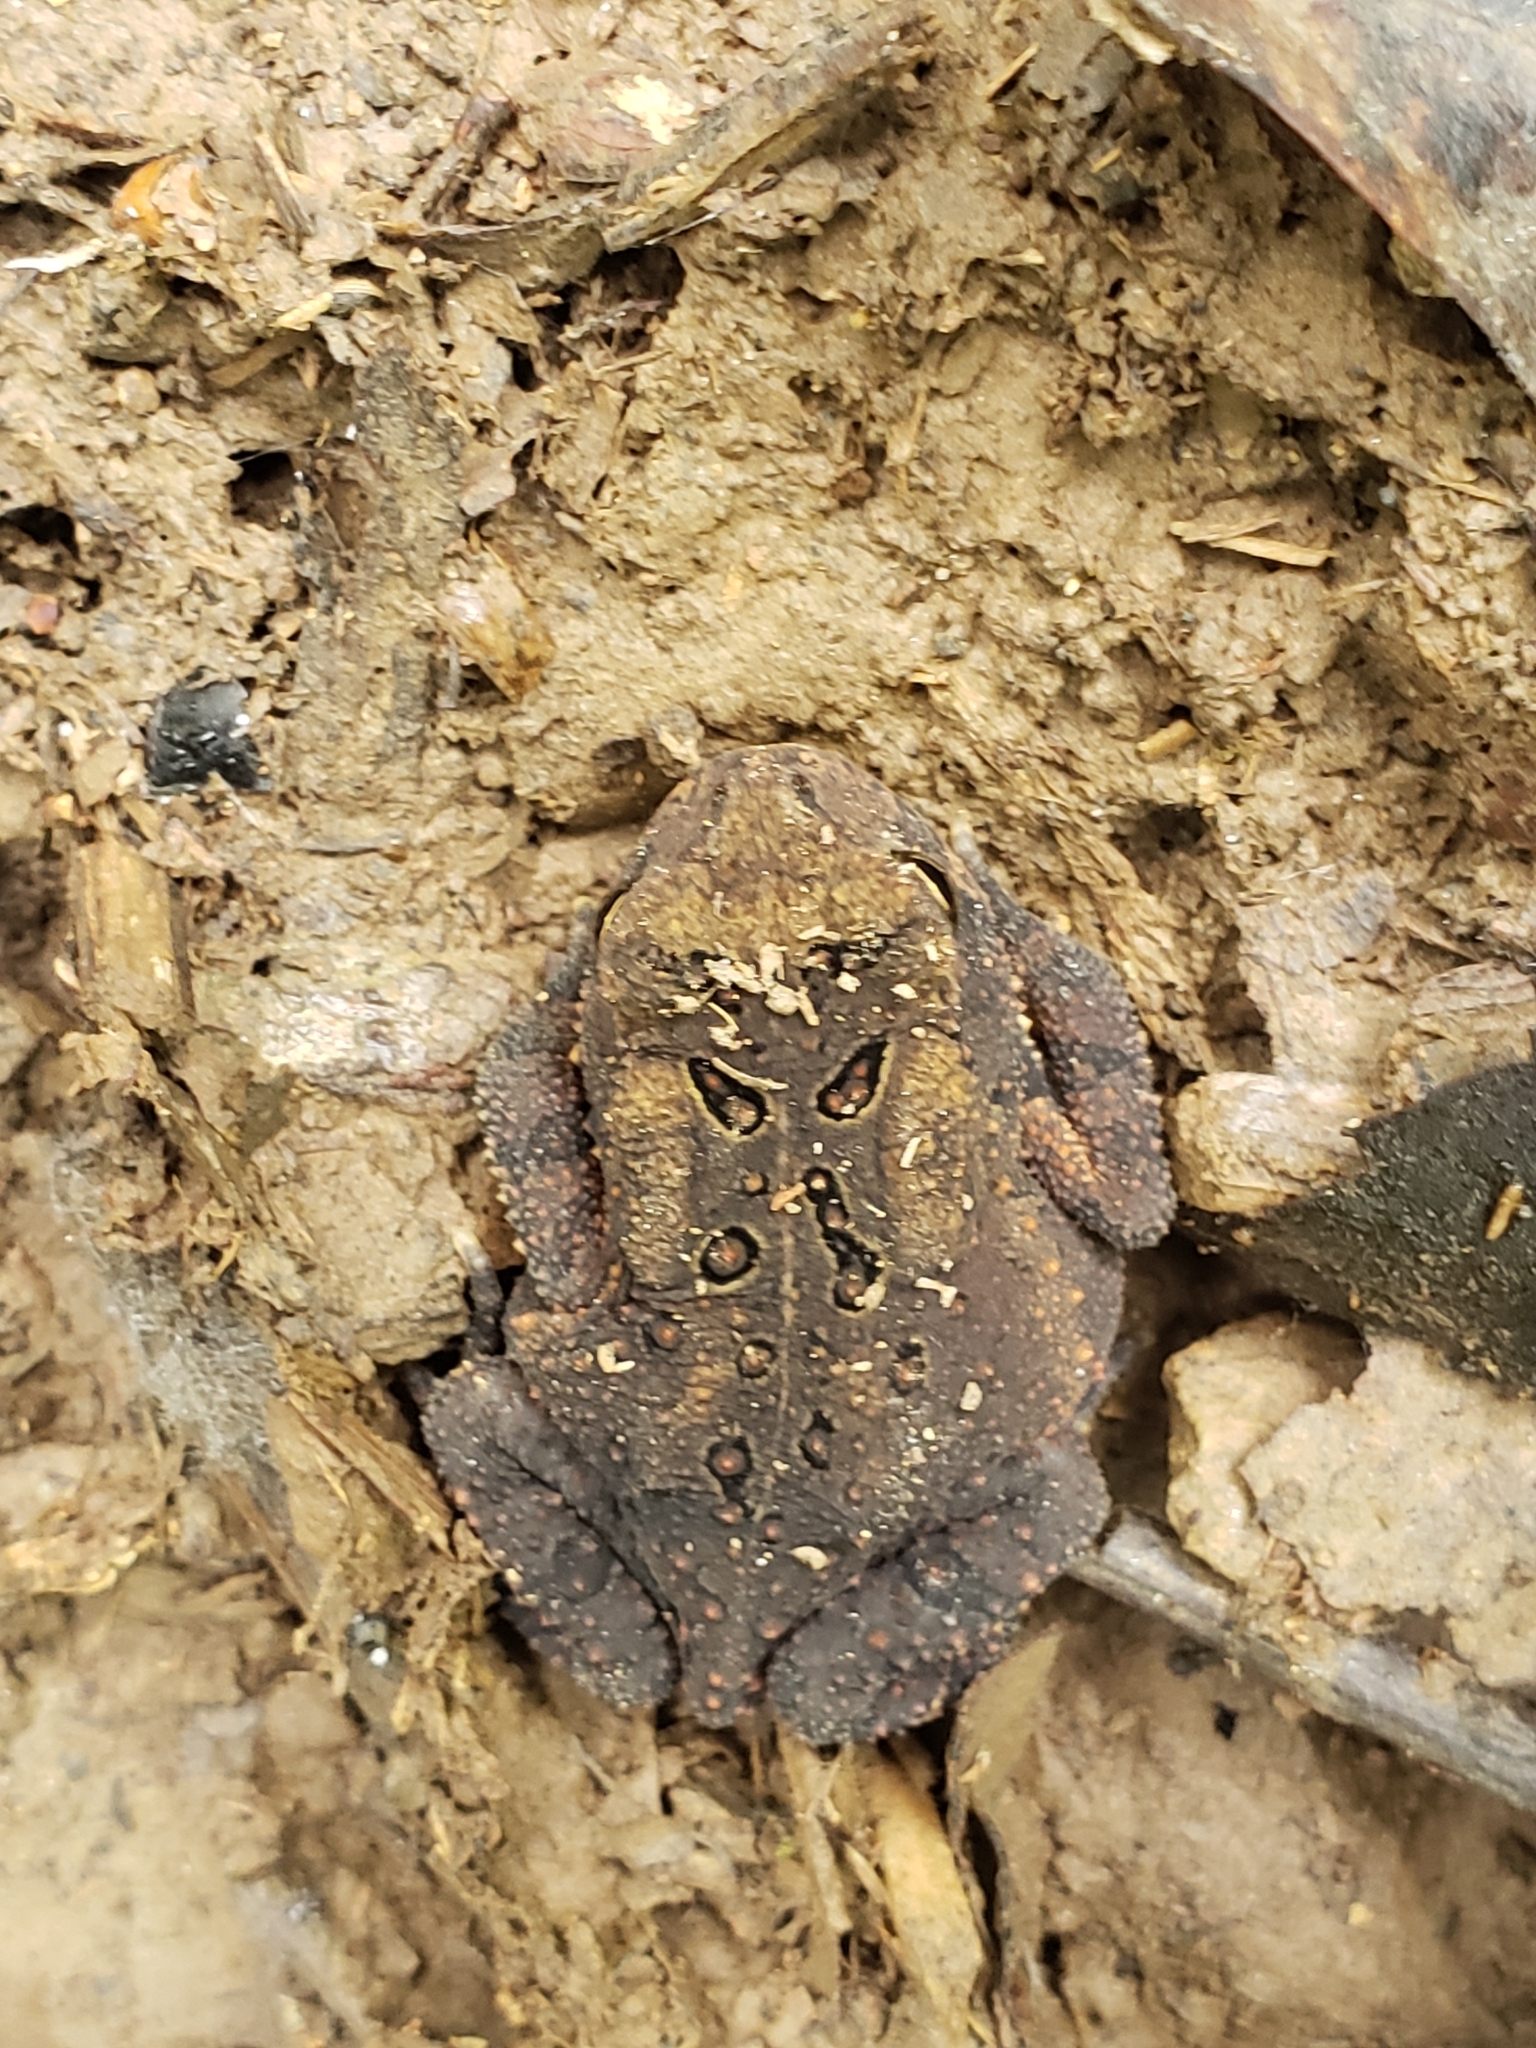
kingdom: Animalia
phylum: Chordata
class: Amphibia
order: Anura
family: Bufonidae
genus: Anaxyrus
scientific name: Anaxyrus americanus
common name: American toad
